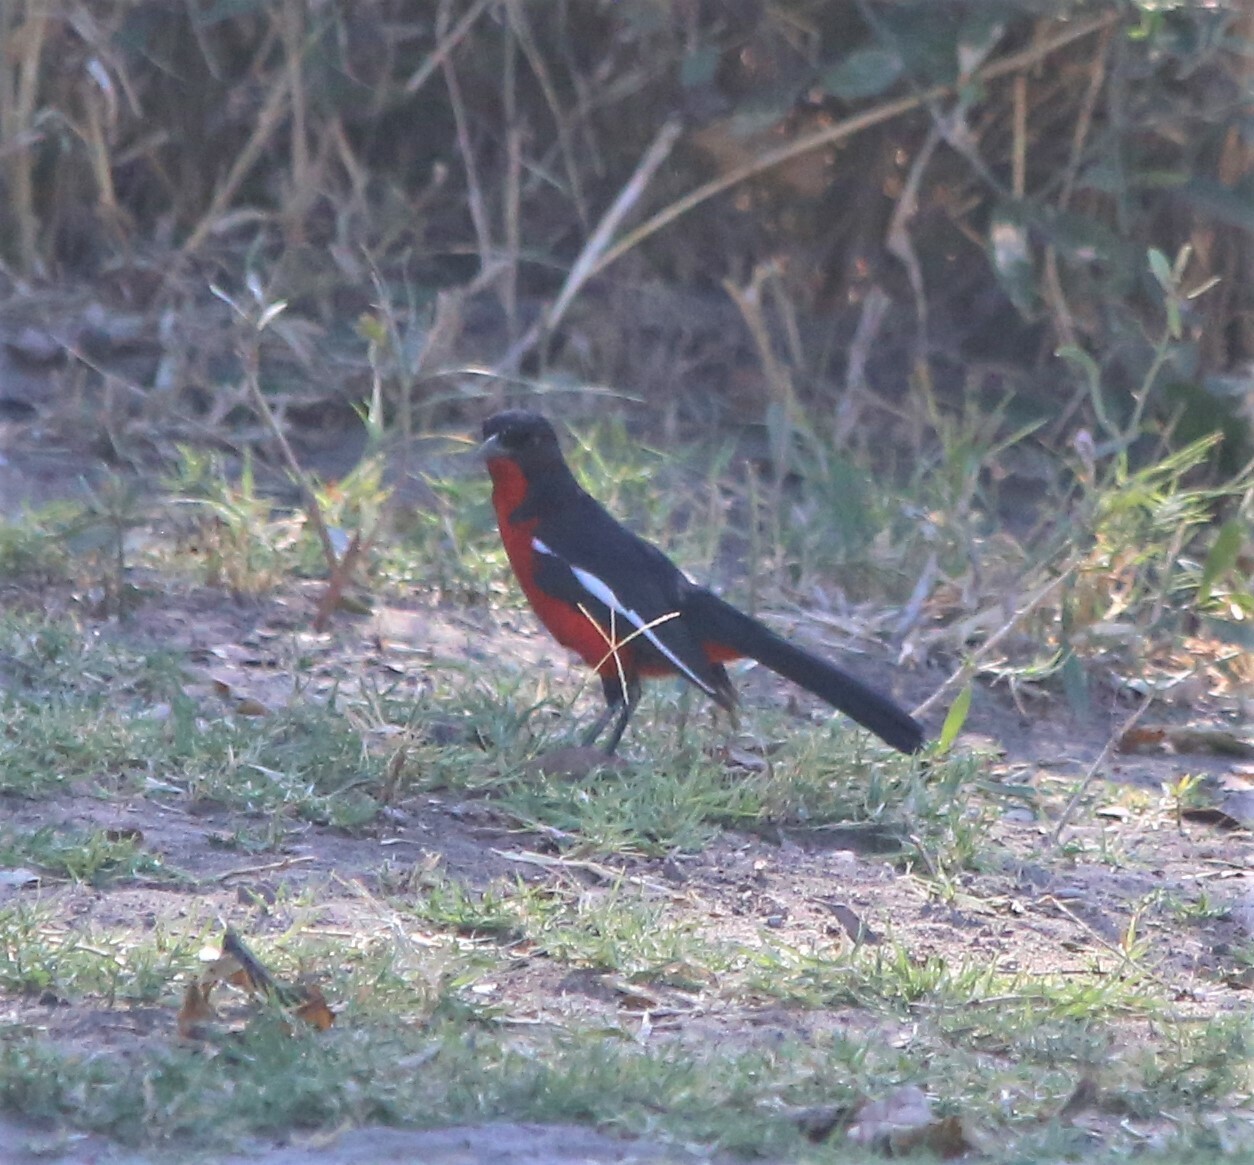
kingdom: Animalia
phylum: Chordata
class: Aves
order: Passeriformes
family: Malaconotidae
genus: Laniarius
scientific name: Laniarius atrococcineus
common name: Crimson-breasted shrike
